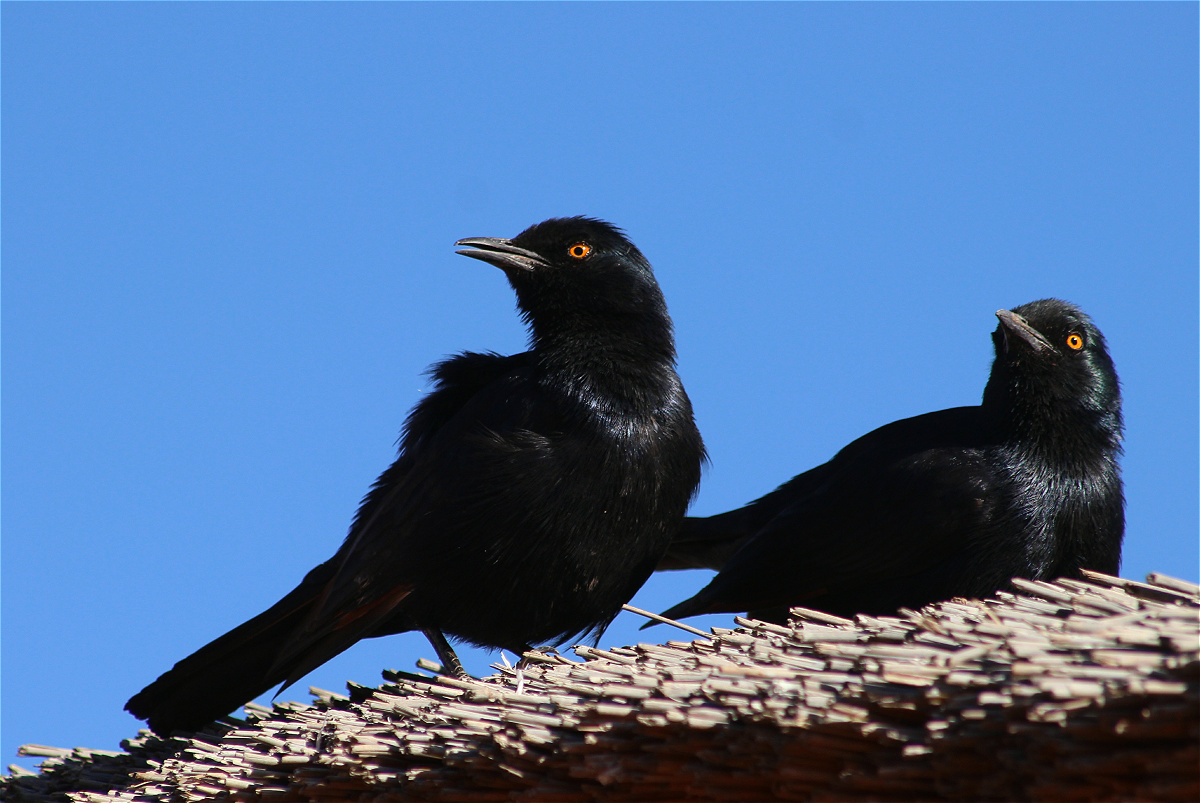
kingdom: Animalia
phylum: Chordata
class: Aves
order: Passeriformes
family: Sturnidae
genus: Onychognathus
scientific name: Onychognathus nabouroup
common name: Pale-winged starling
